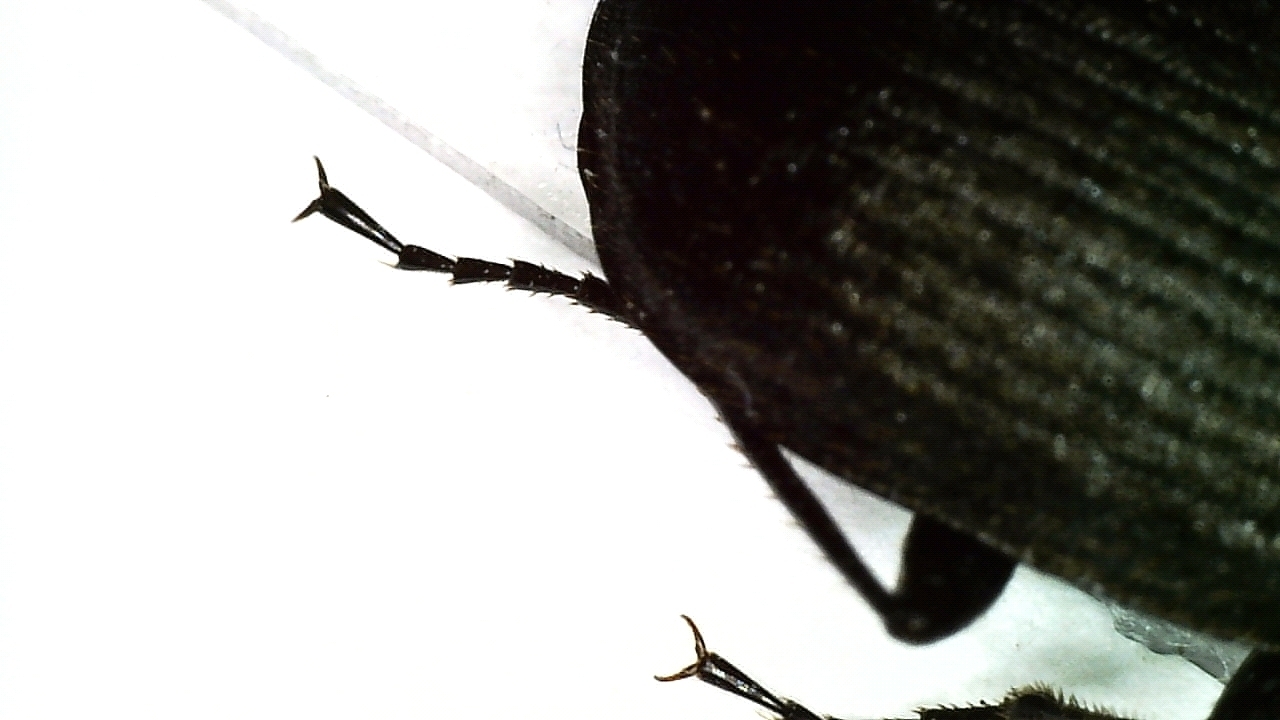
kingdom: Animalia
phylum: Arthropoda
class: Insecta
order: Coleoptera
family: Carabidae
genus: Chlaenius
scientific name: Chlaenius tristis
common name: Black night-runner
